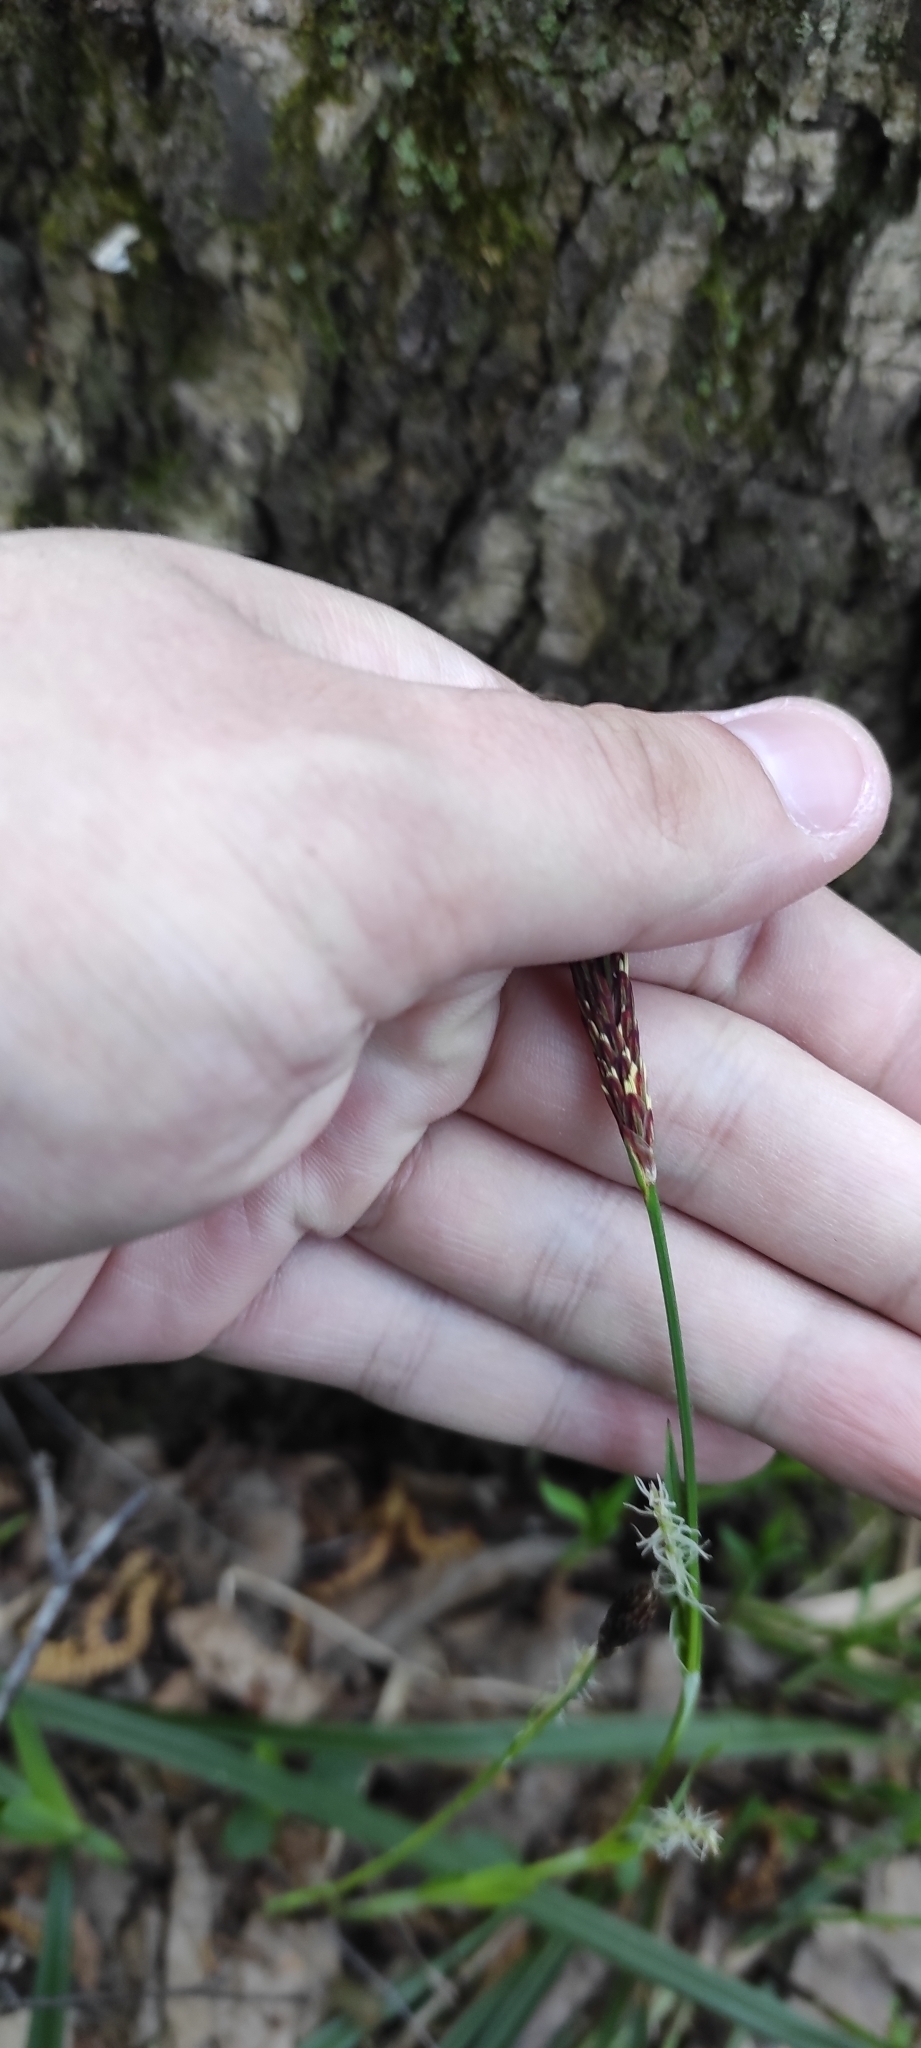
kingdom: Plantae
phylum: Tracheophyta
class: Liliopsida
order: Poales
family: Cyperaceae
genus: Carex
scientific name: Carex pilosa
